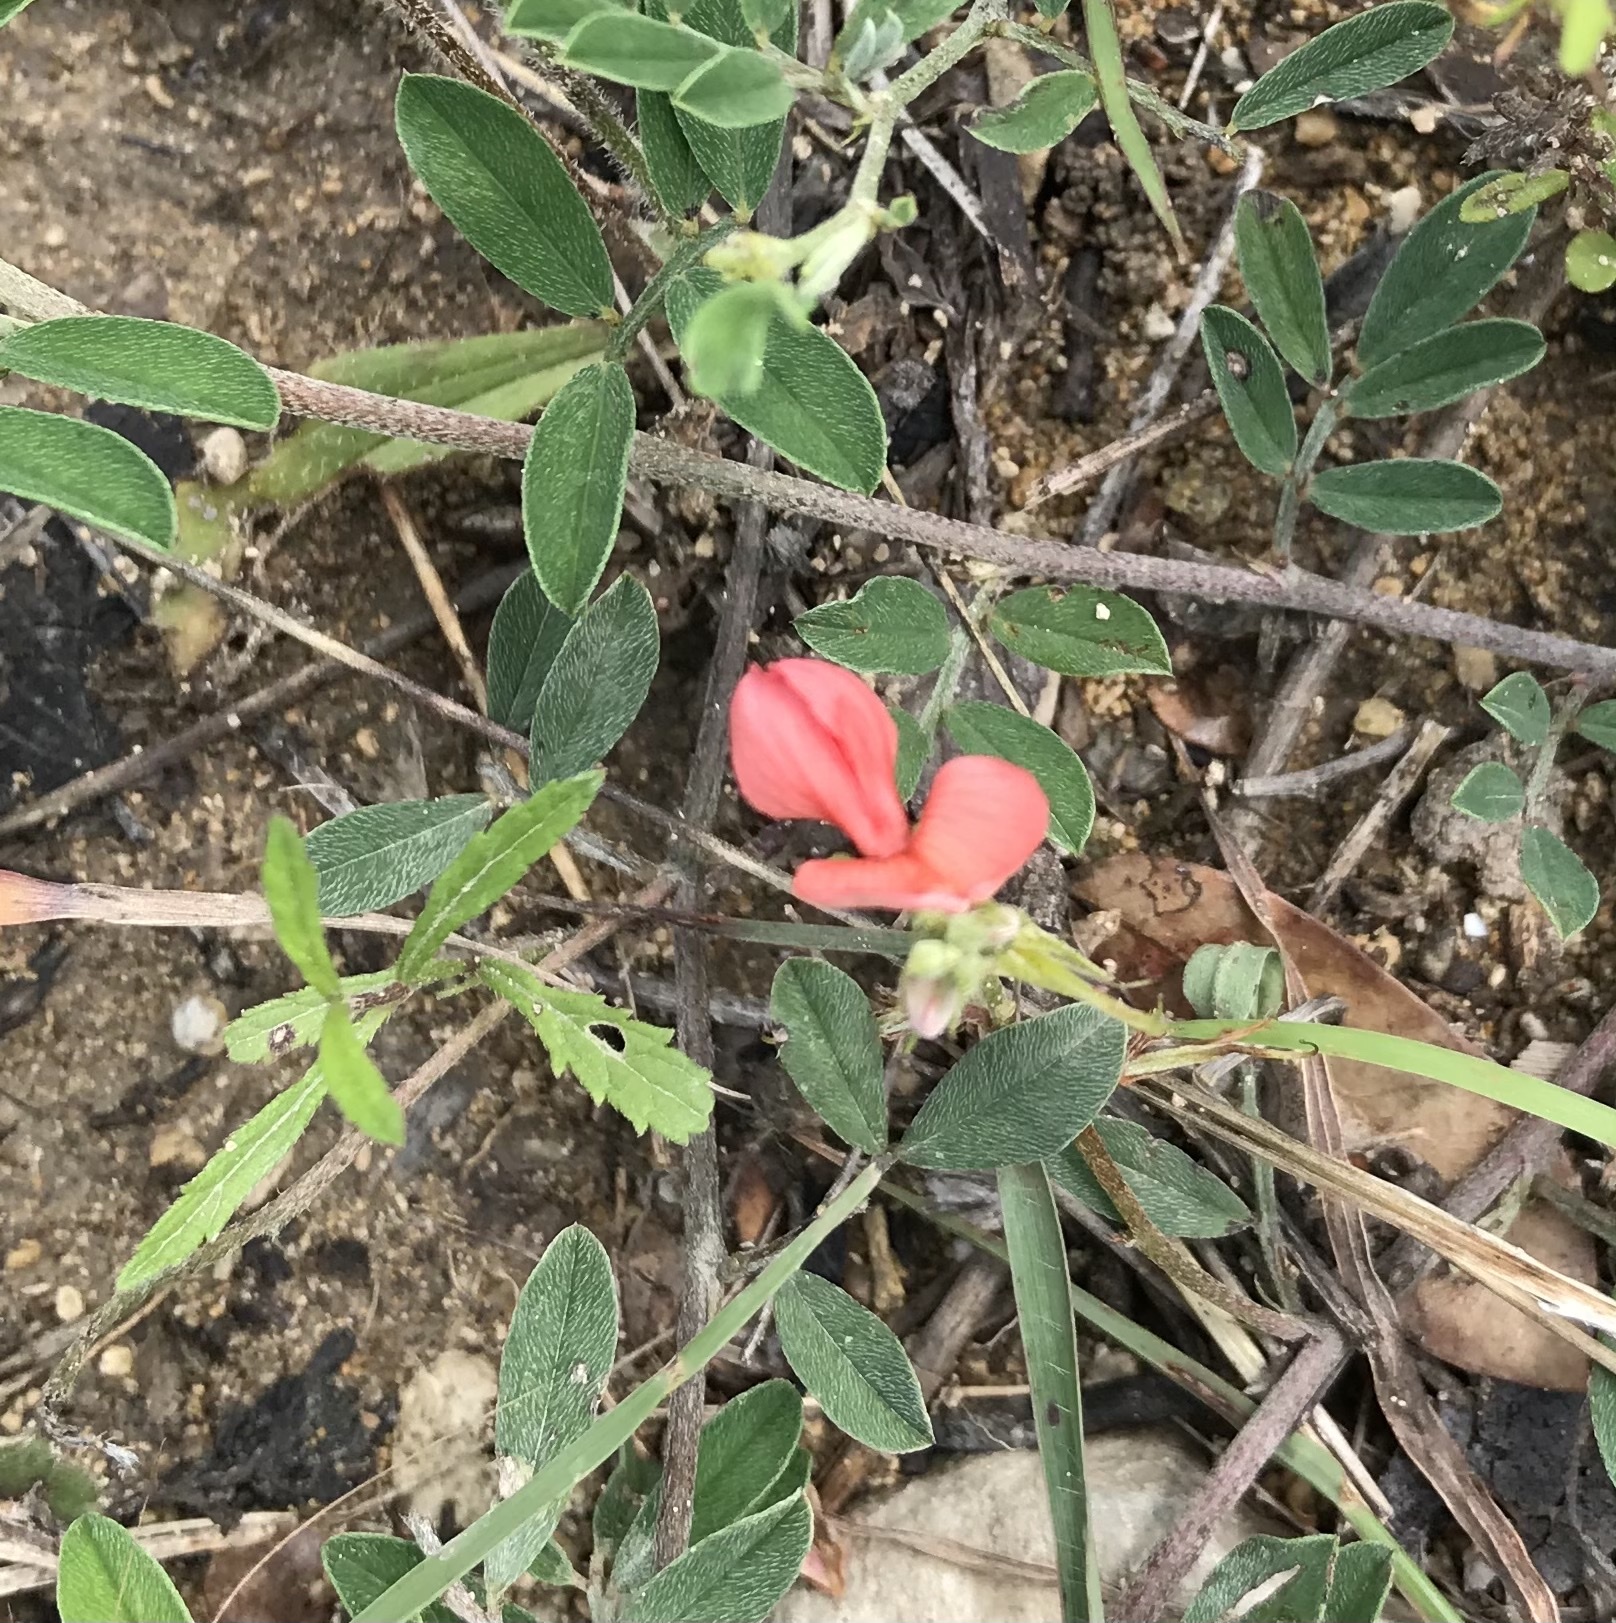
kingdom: Plantae
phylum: Tracheophyta
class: Magnoliopsida
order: Fabales
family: Fabaceae
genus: Indigofera
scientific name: Indigofera miniata
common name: Coast indigo
